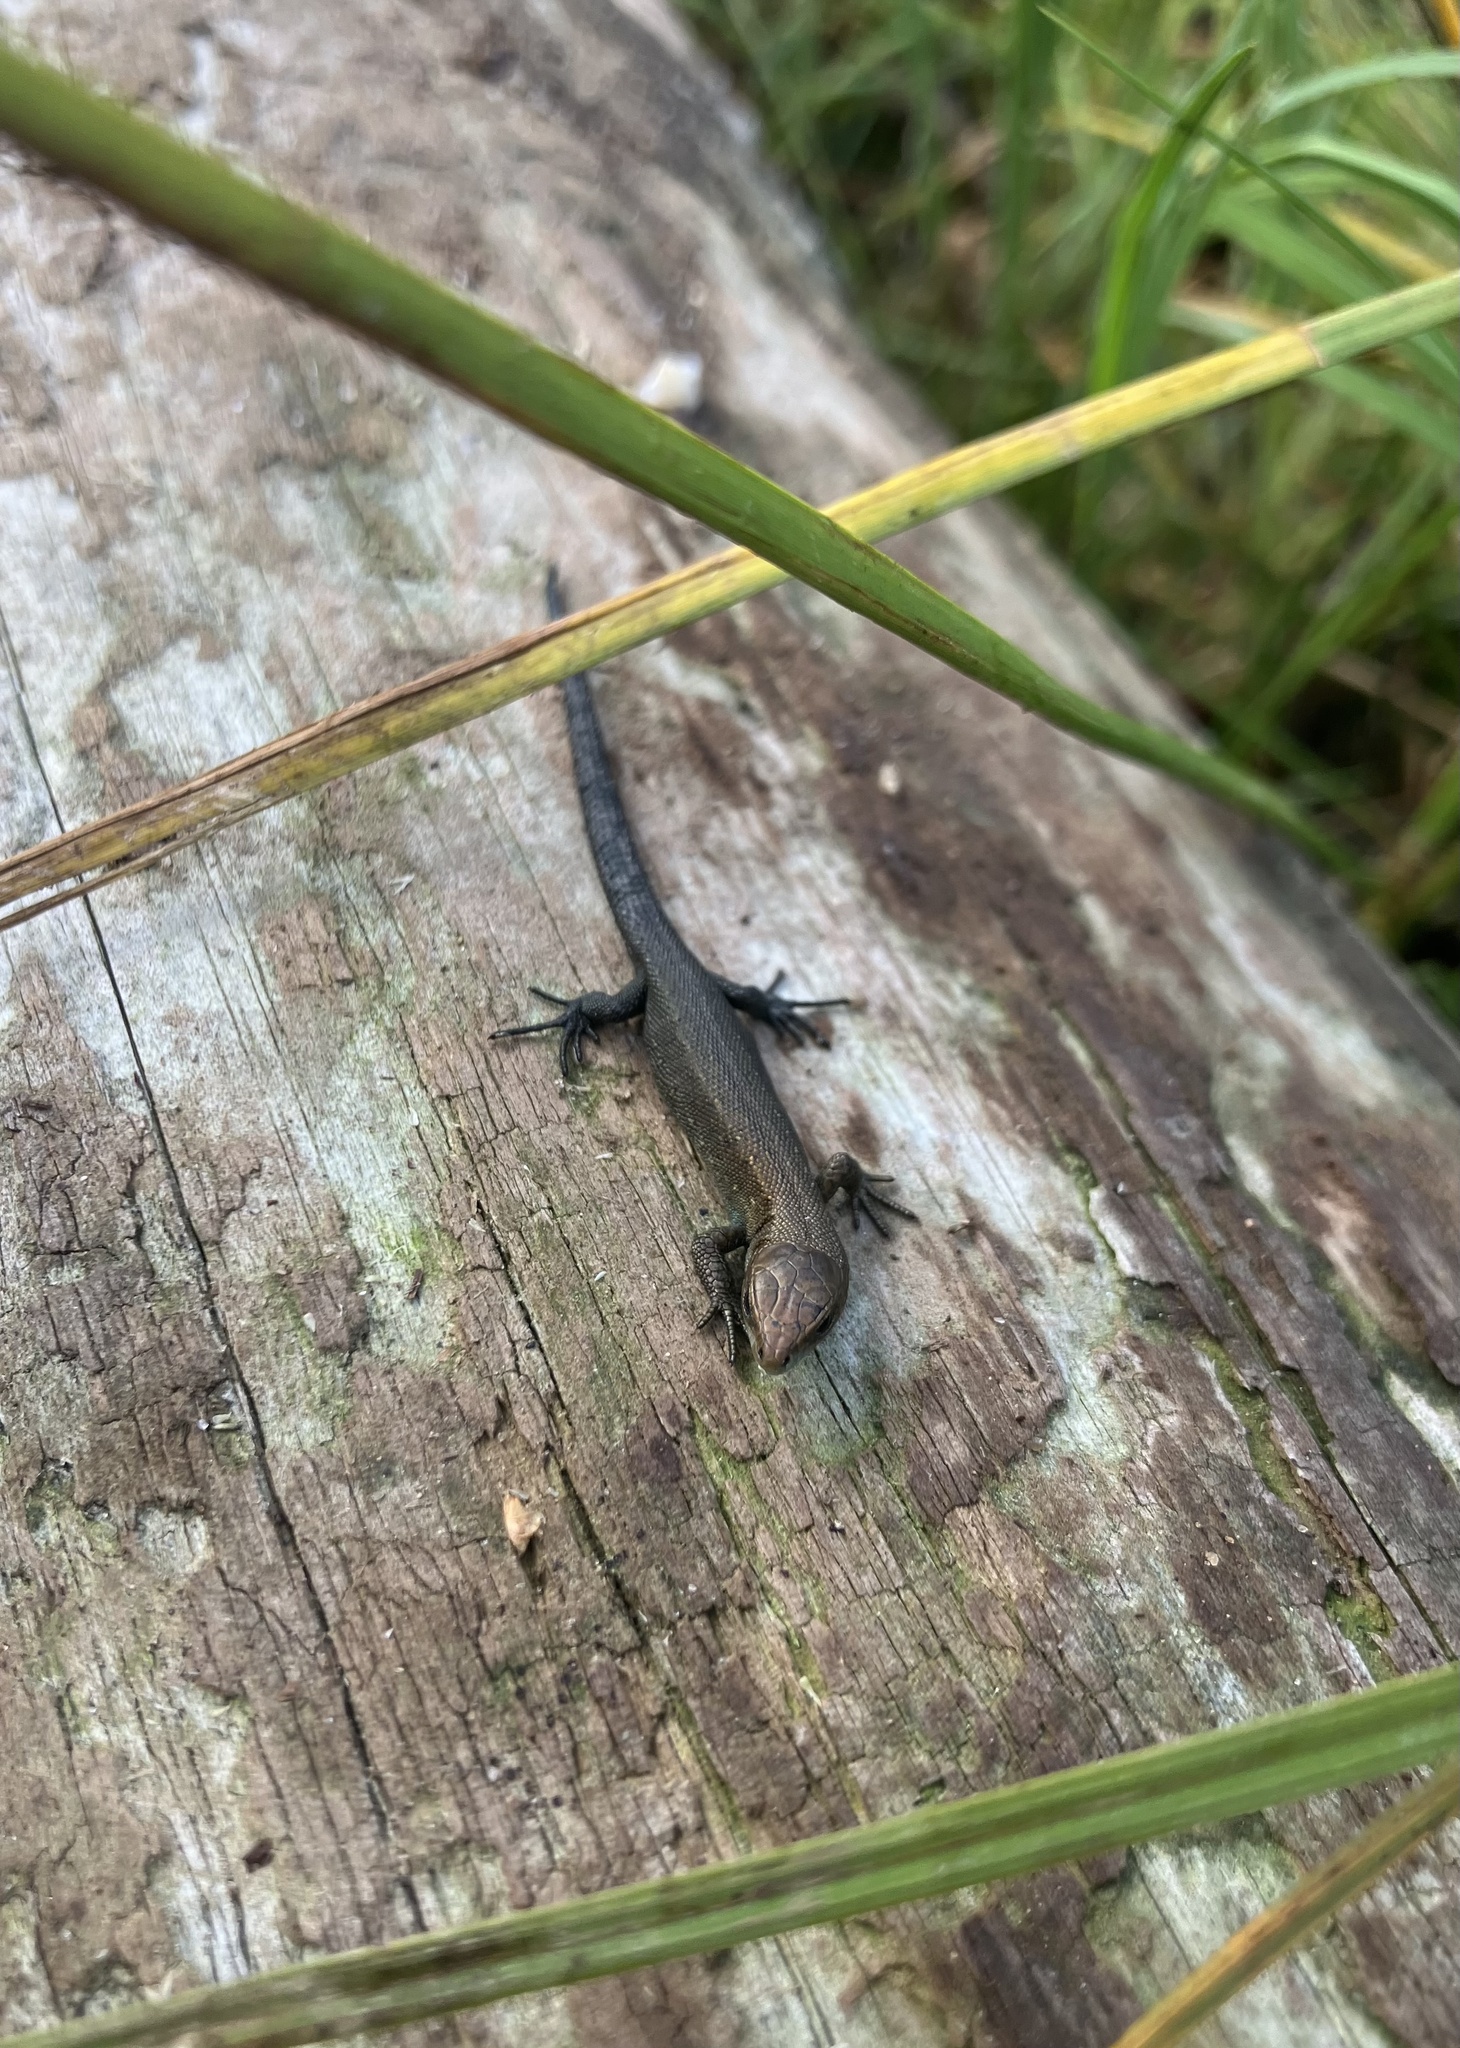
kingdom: Animalia
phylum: Chordata
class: Squamata
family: Lacertidae
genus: Zootoca
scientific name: Zootoca vivipara
